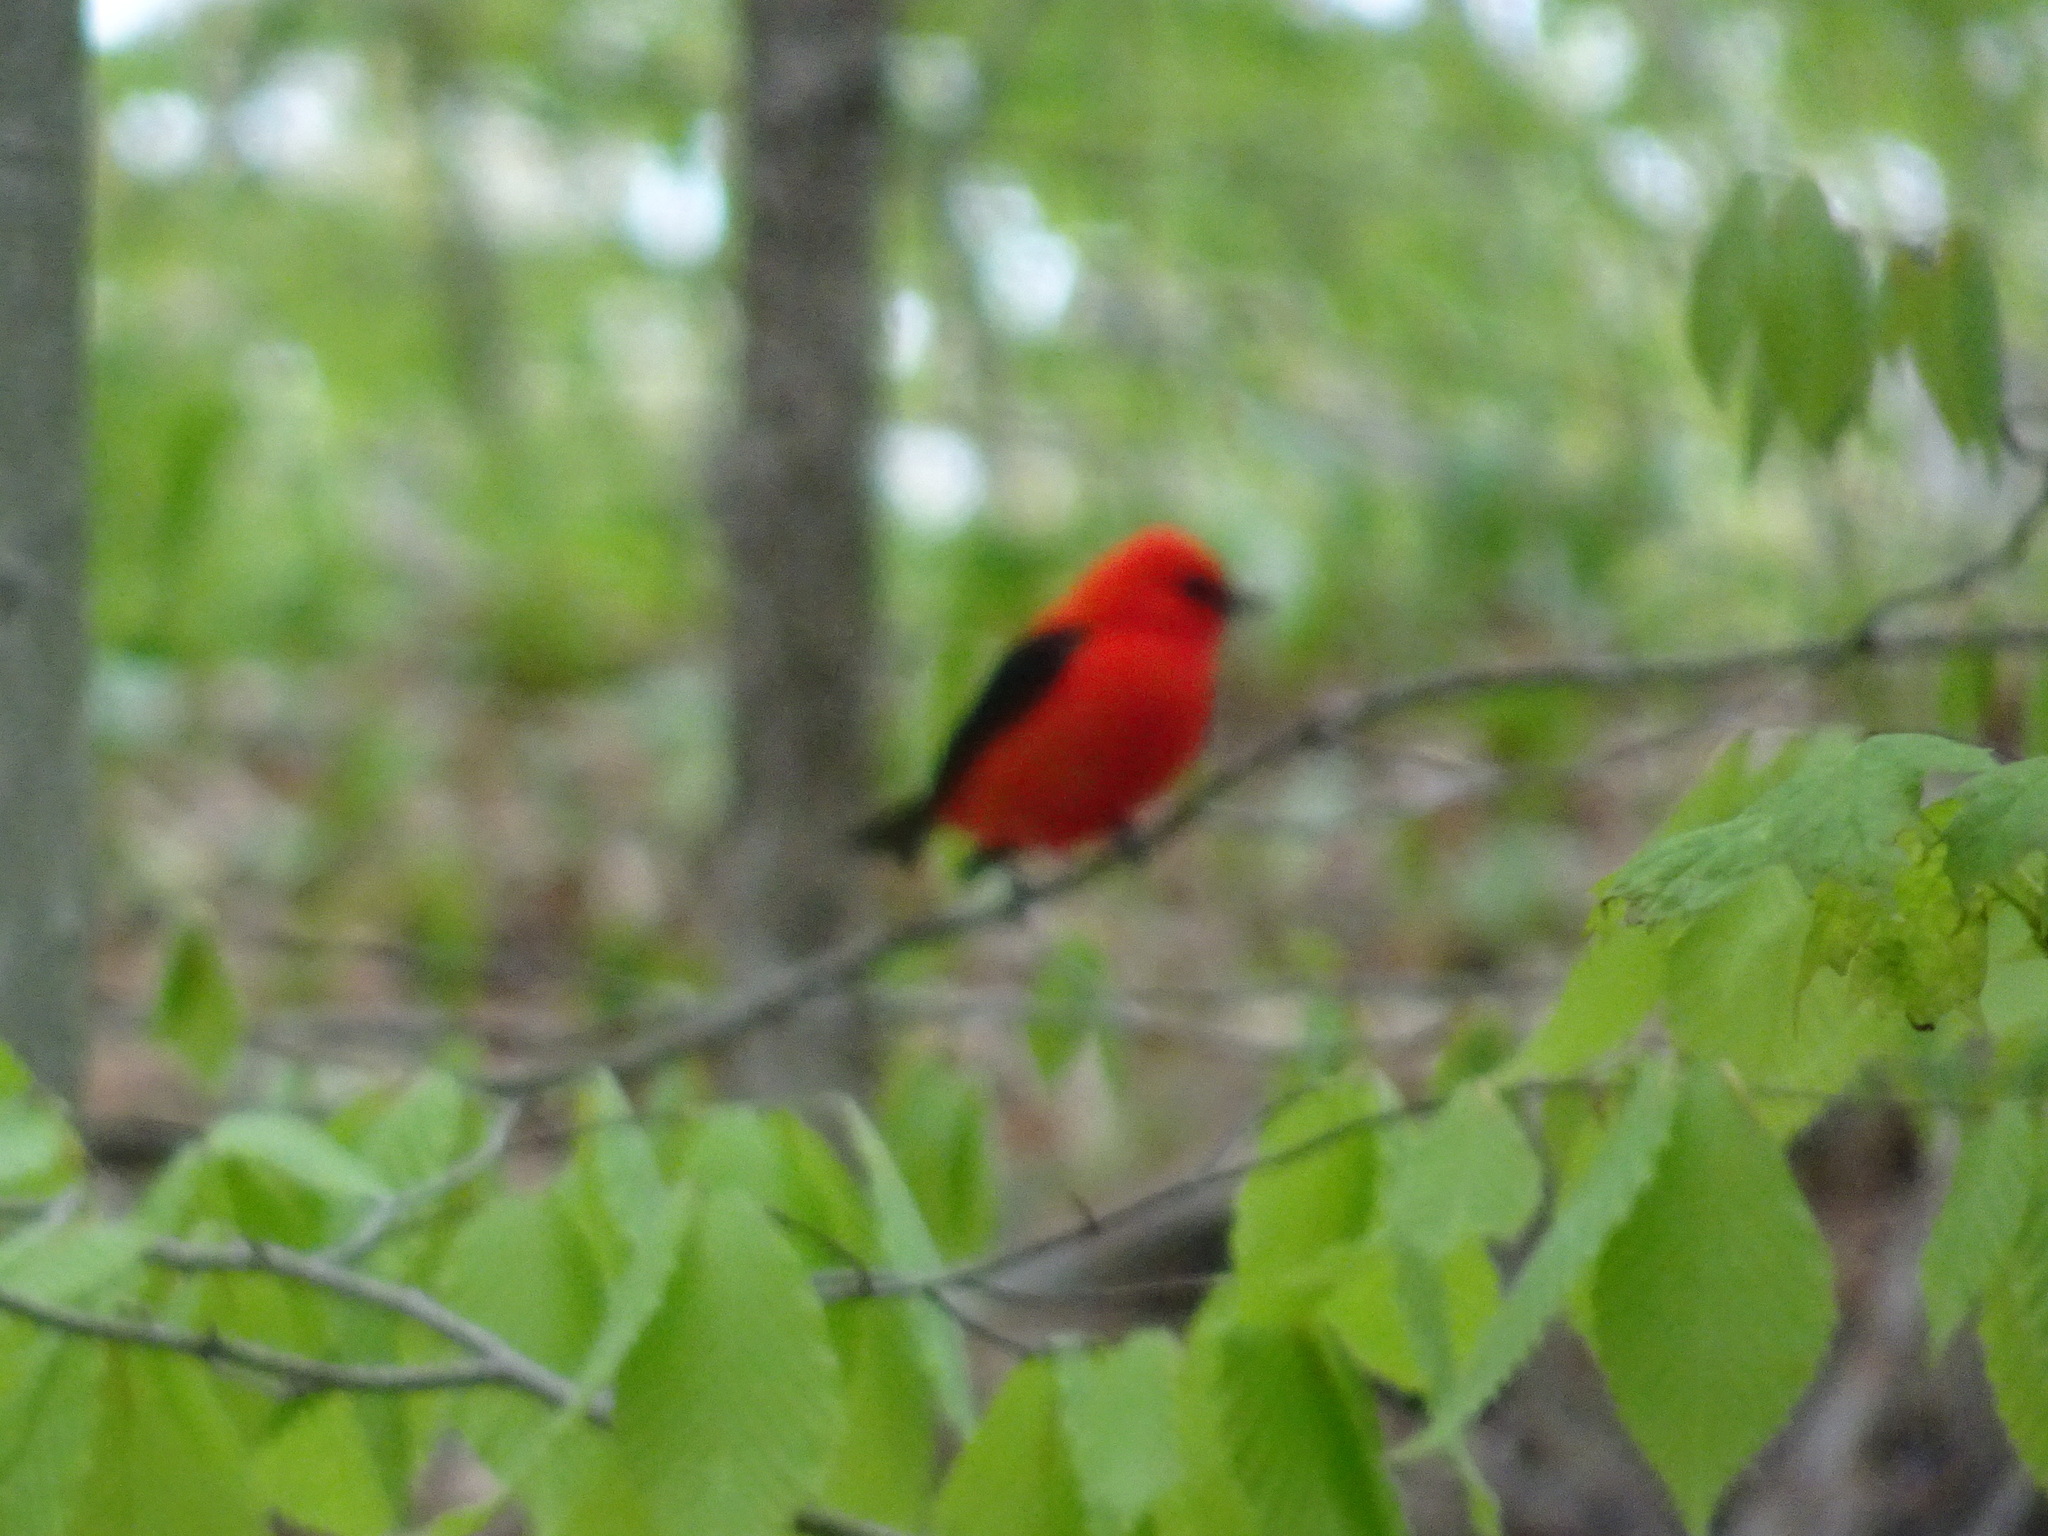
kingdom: Animalia
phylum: Chordata
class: Aves
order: Passeriformes
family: Cardinalidae
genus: Piranga
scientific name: Piranga olivacea
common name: Scarlet tanager
